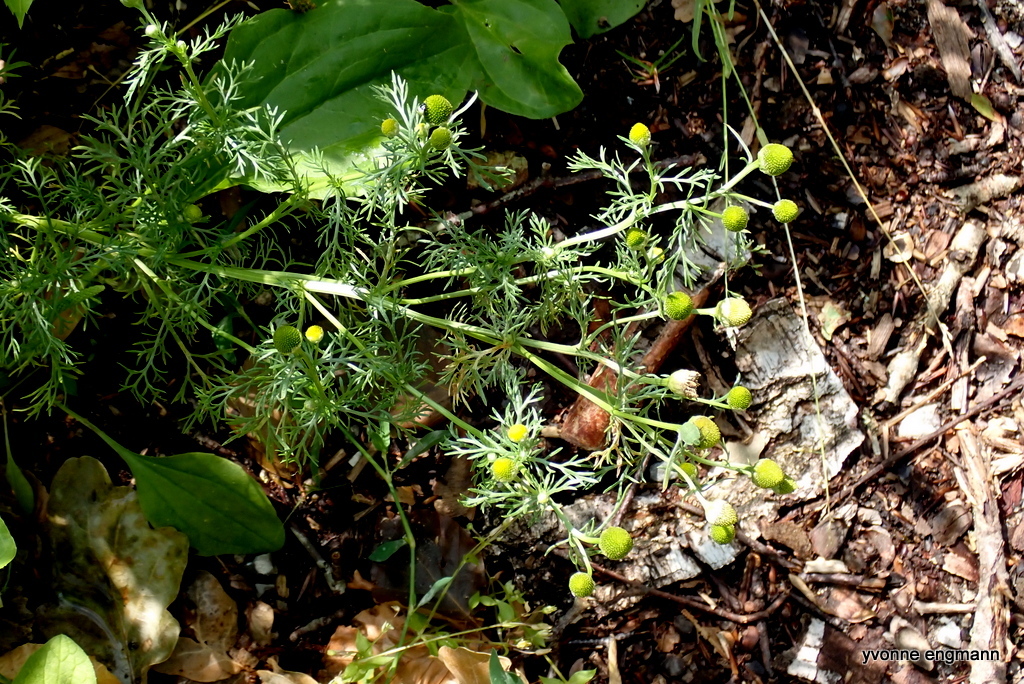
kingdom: Plantae
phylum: Tracheophyta
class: Magnoliopsida
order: Asterales
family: Asteraceae
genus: Matricaria
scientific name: Matricaria discoidea
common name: Disc mayweed
